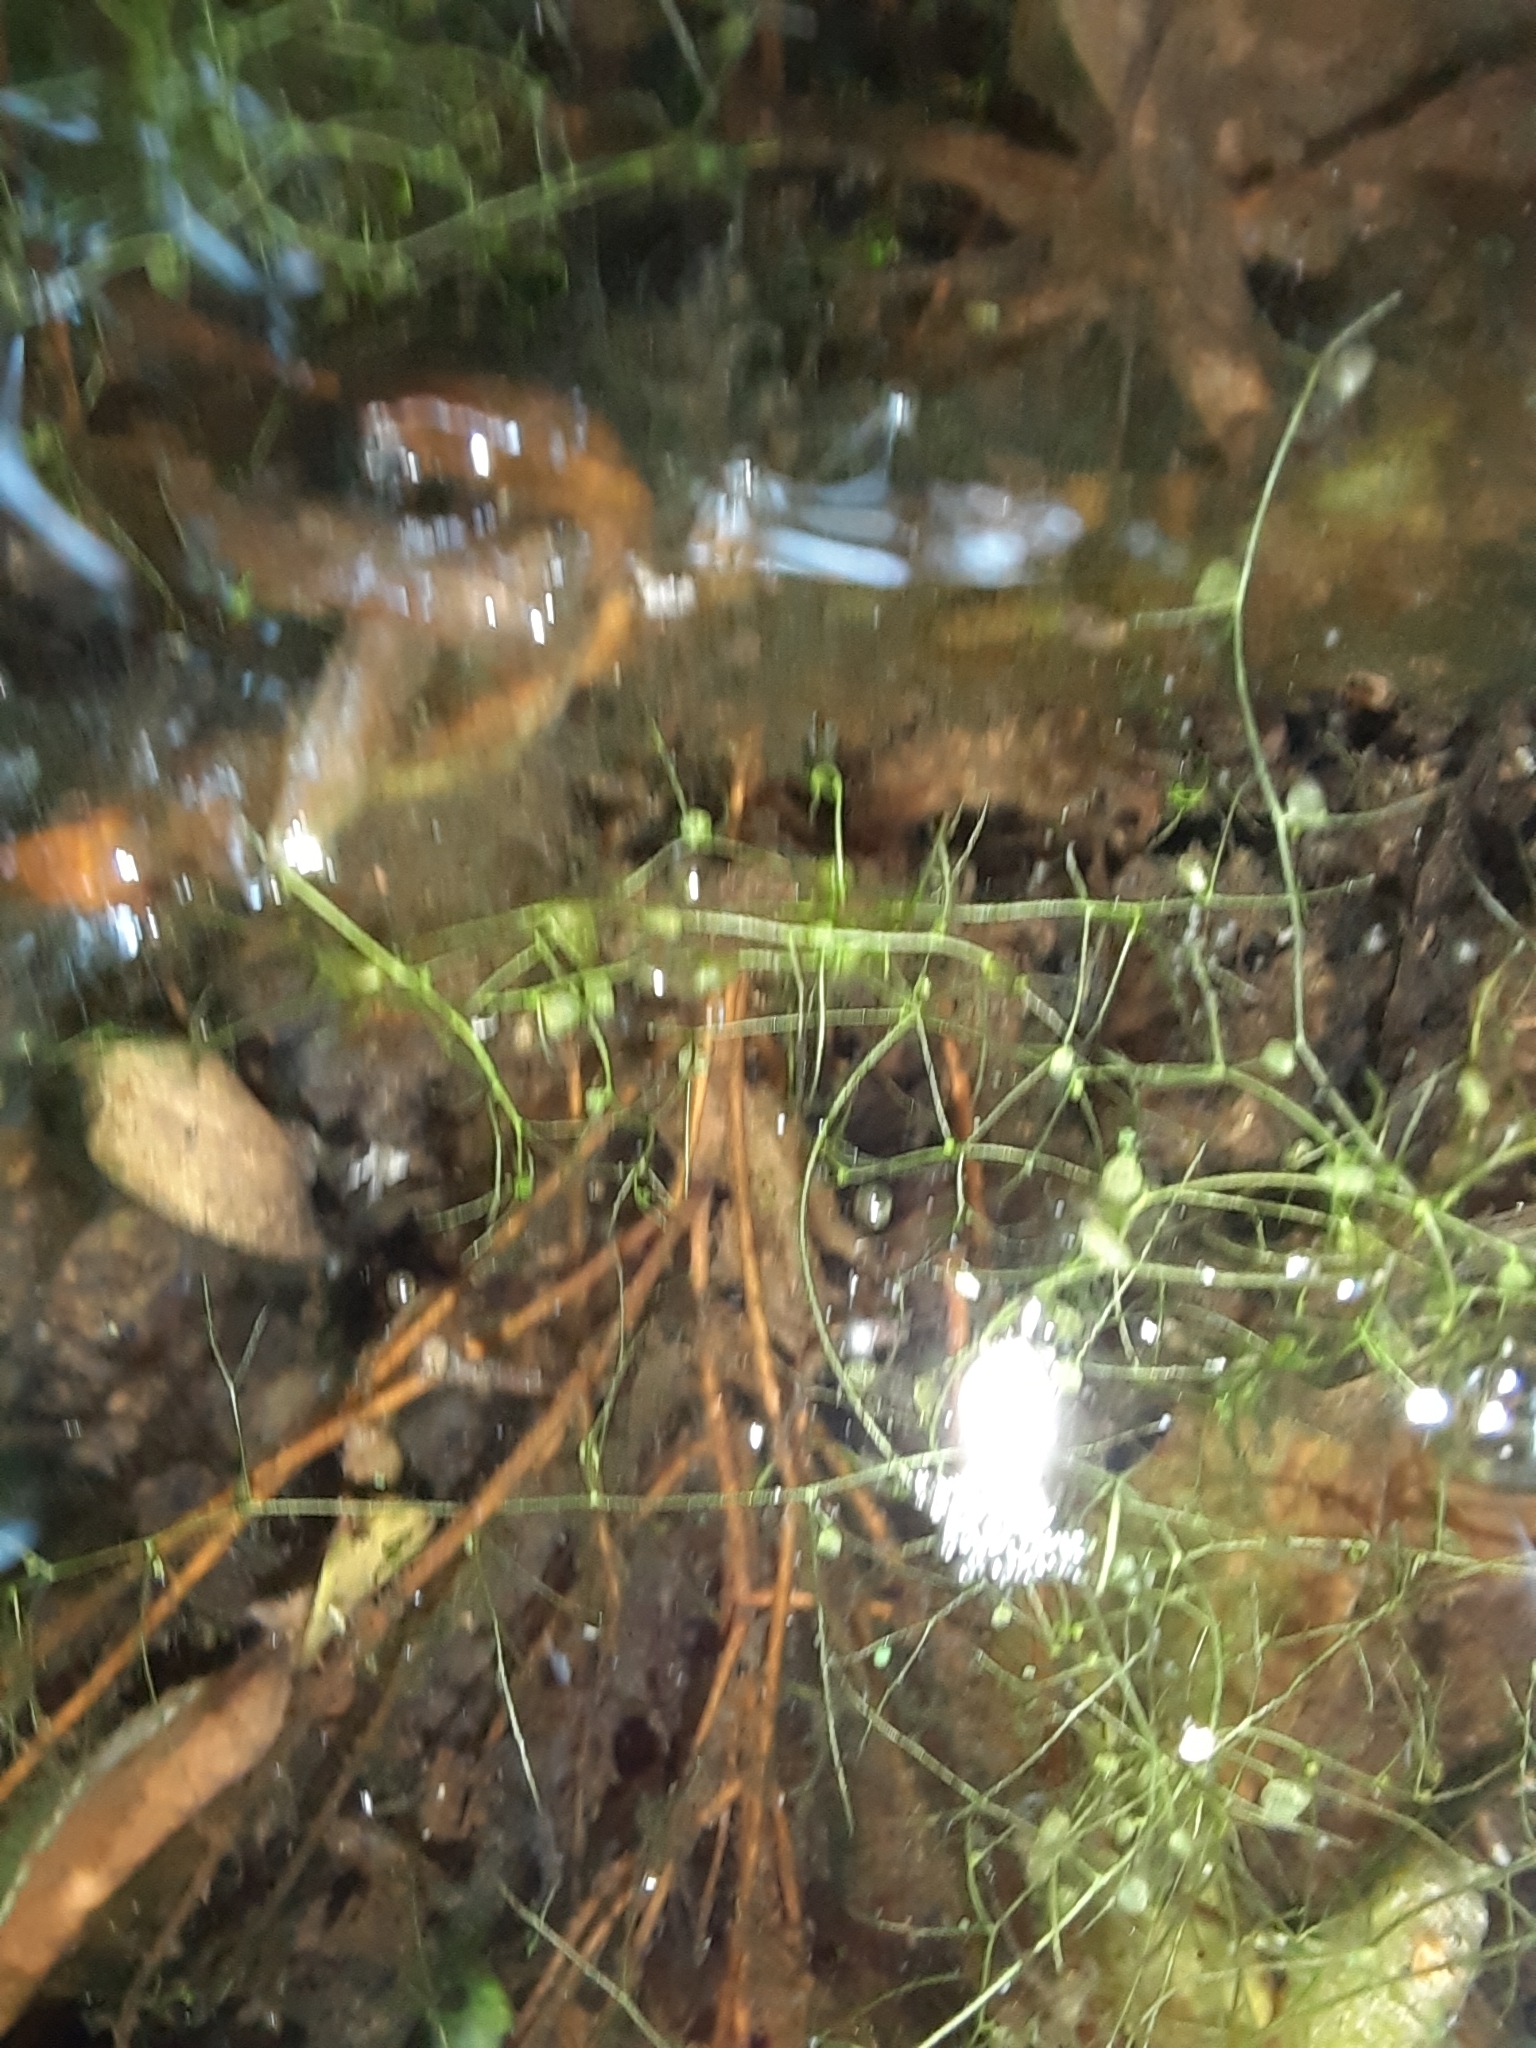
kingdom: Plantae
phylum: Tracheophyta
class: Magnoliopsida
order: Lamiales
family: Lentibulariaceae
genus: Utricularia
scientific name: Utricularia gibba
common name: Humped bladderwort
